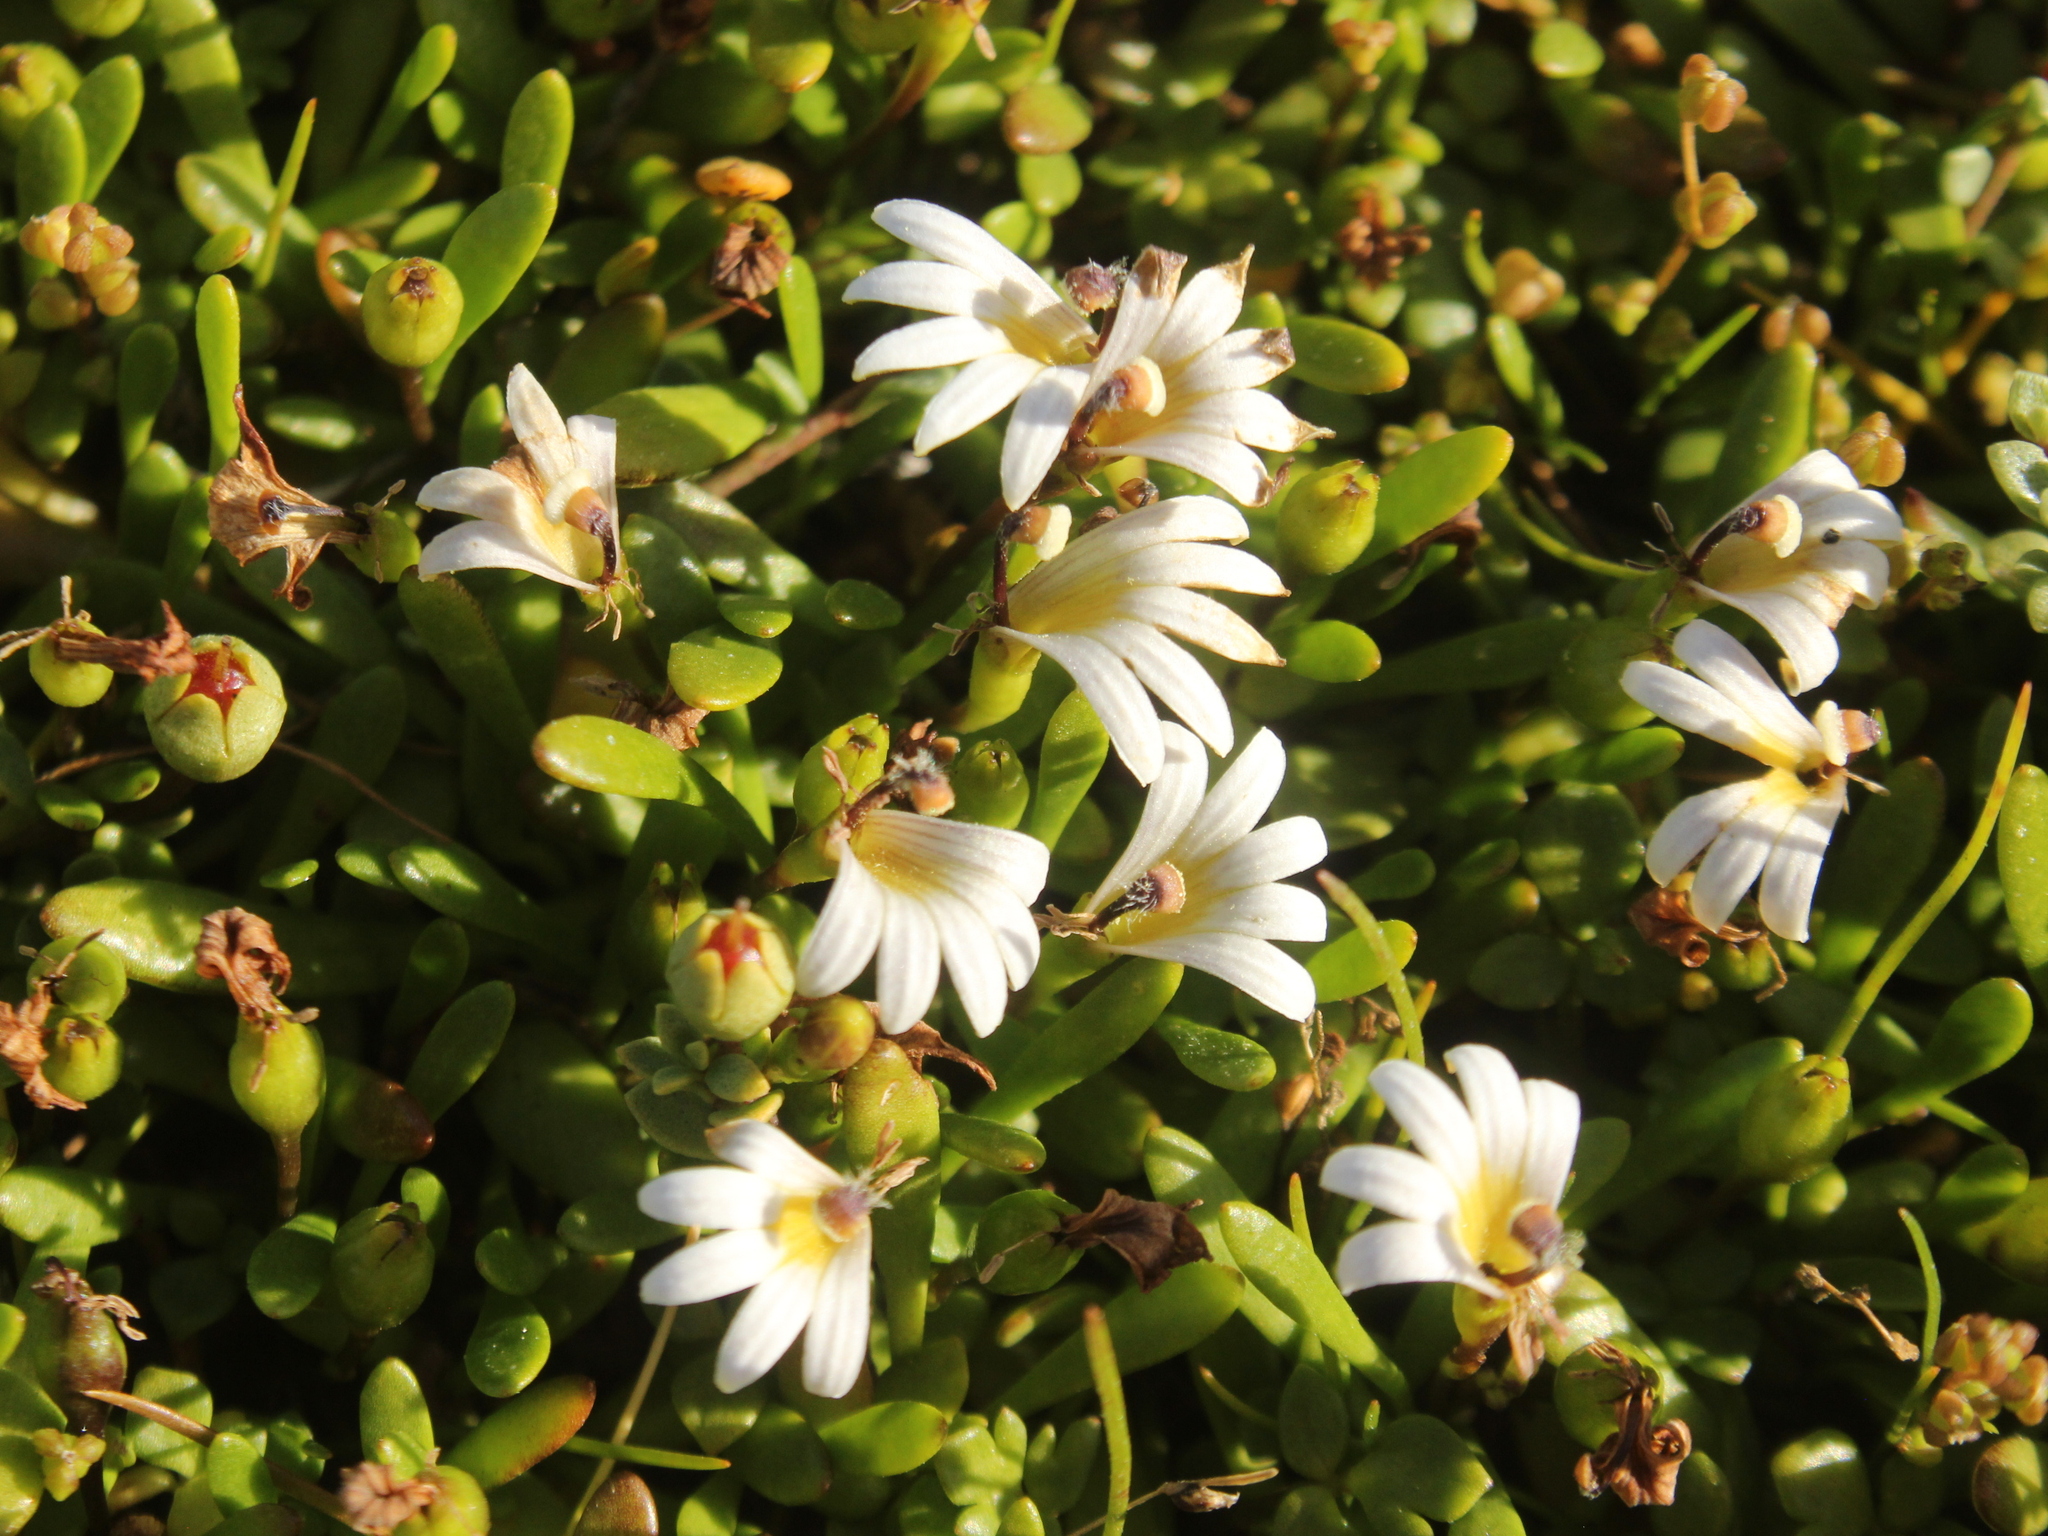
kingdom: Plantae
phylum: Tracheophyta
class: Magnoliopsida
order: Asterales
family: Goodeniaceae
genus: Goodenia
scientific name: Goodenia radicans
